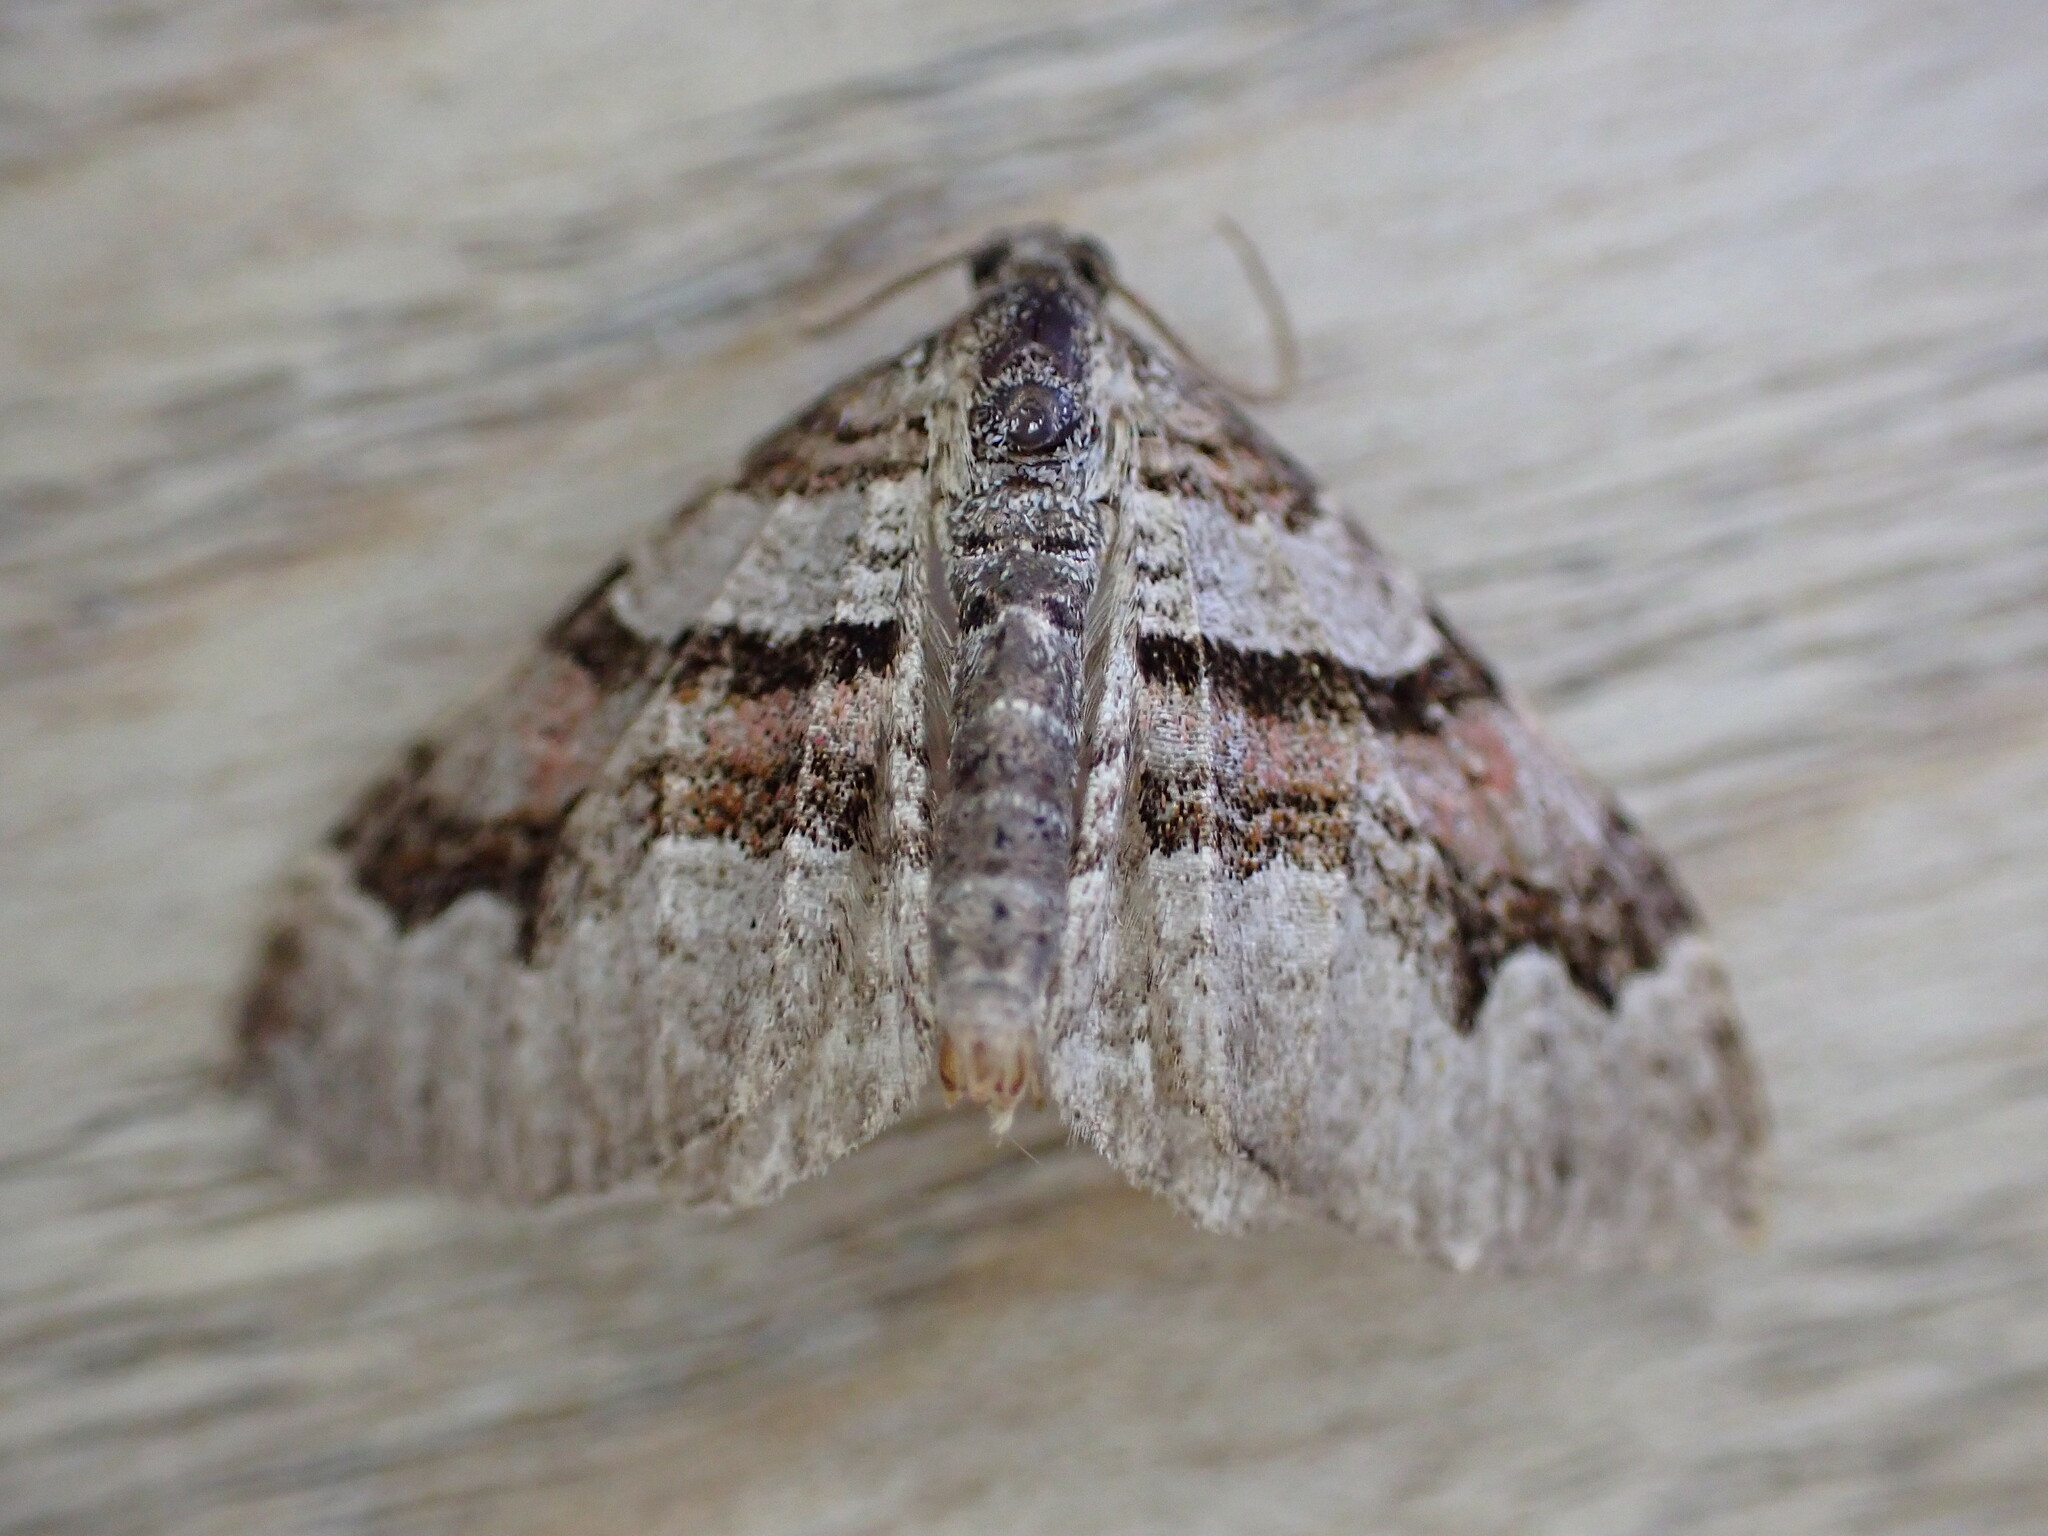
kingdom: Animalia
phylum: Arthropoda
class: Insecta
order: Lepidoptera
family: Geometridae
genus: Xanthorhoe
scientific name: Xanthorhoe designata
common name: Flame carpet
